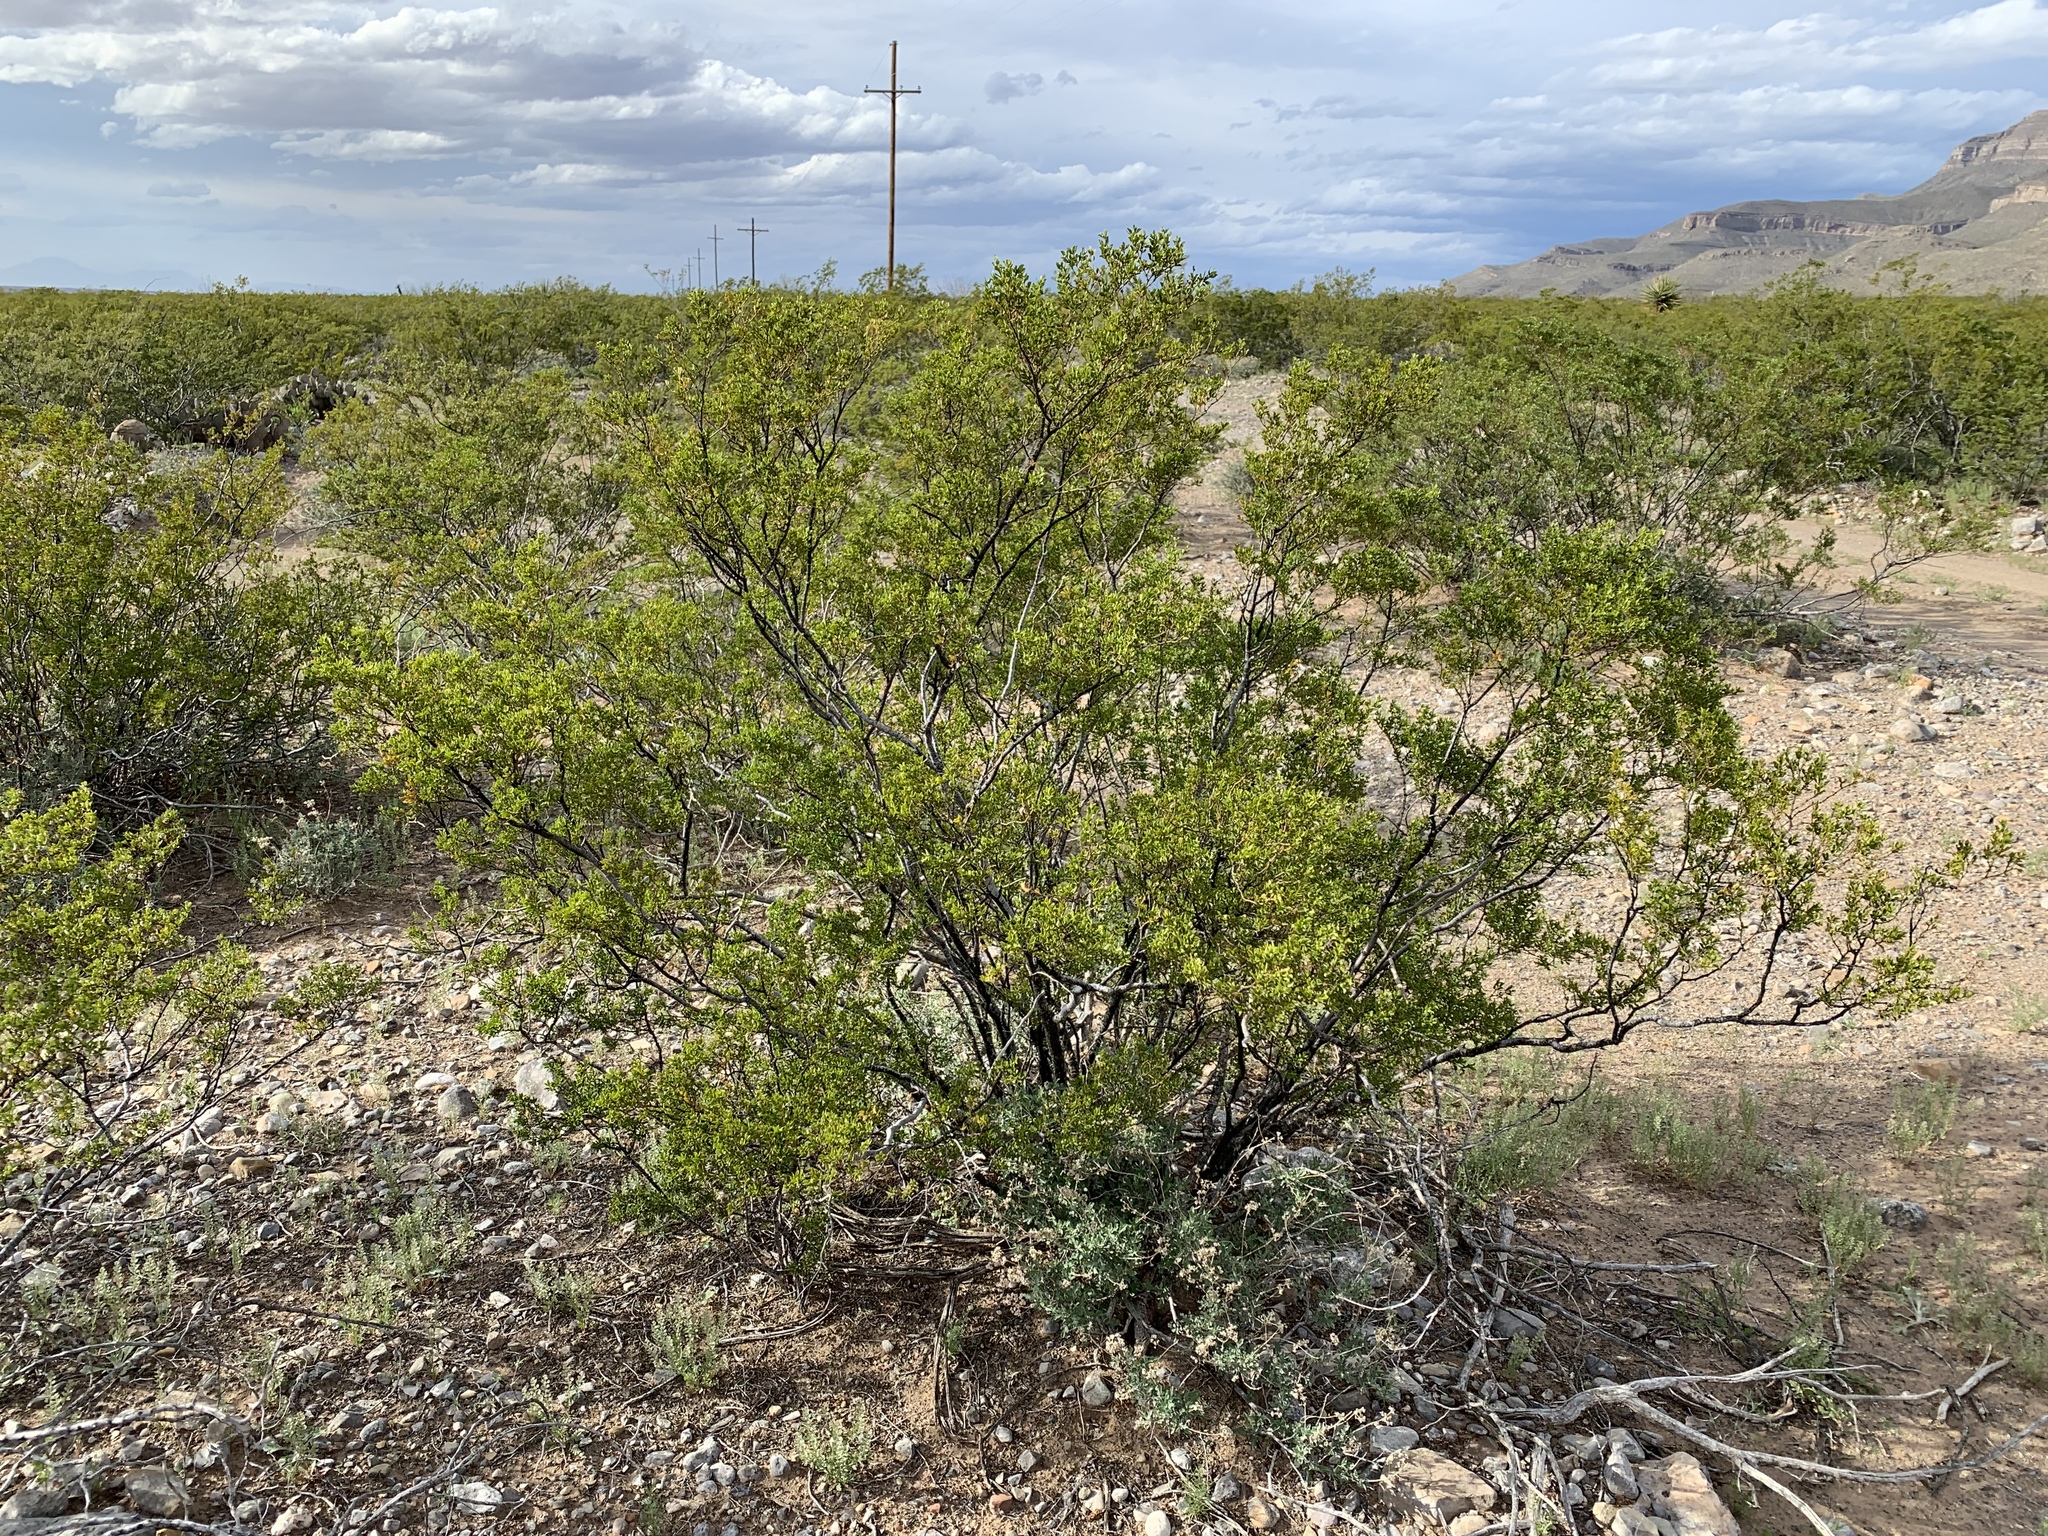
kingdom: Plantae
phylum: Tracheophyta
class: Magnoliopsida
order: Zygophyllales
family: Zygophyllaceae
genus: Larrea
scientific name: Larrea tridentata
